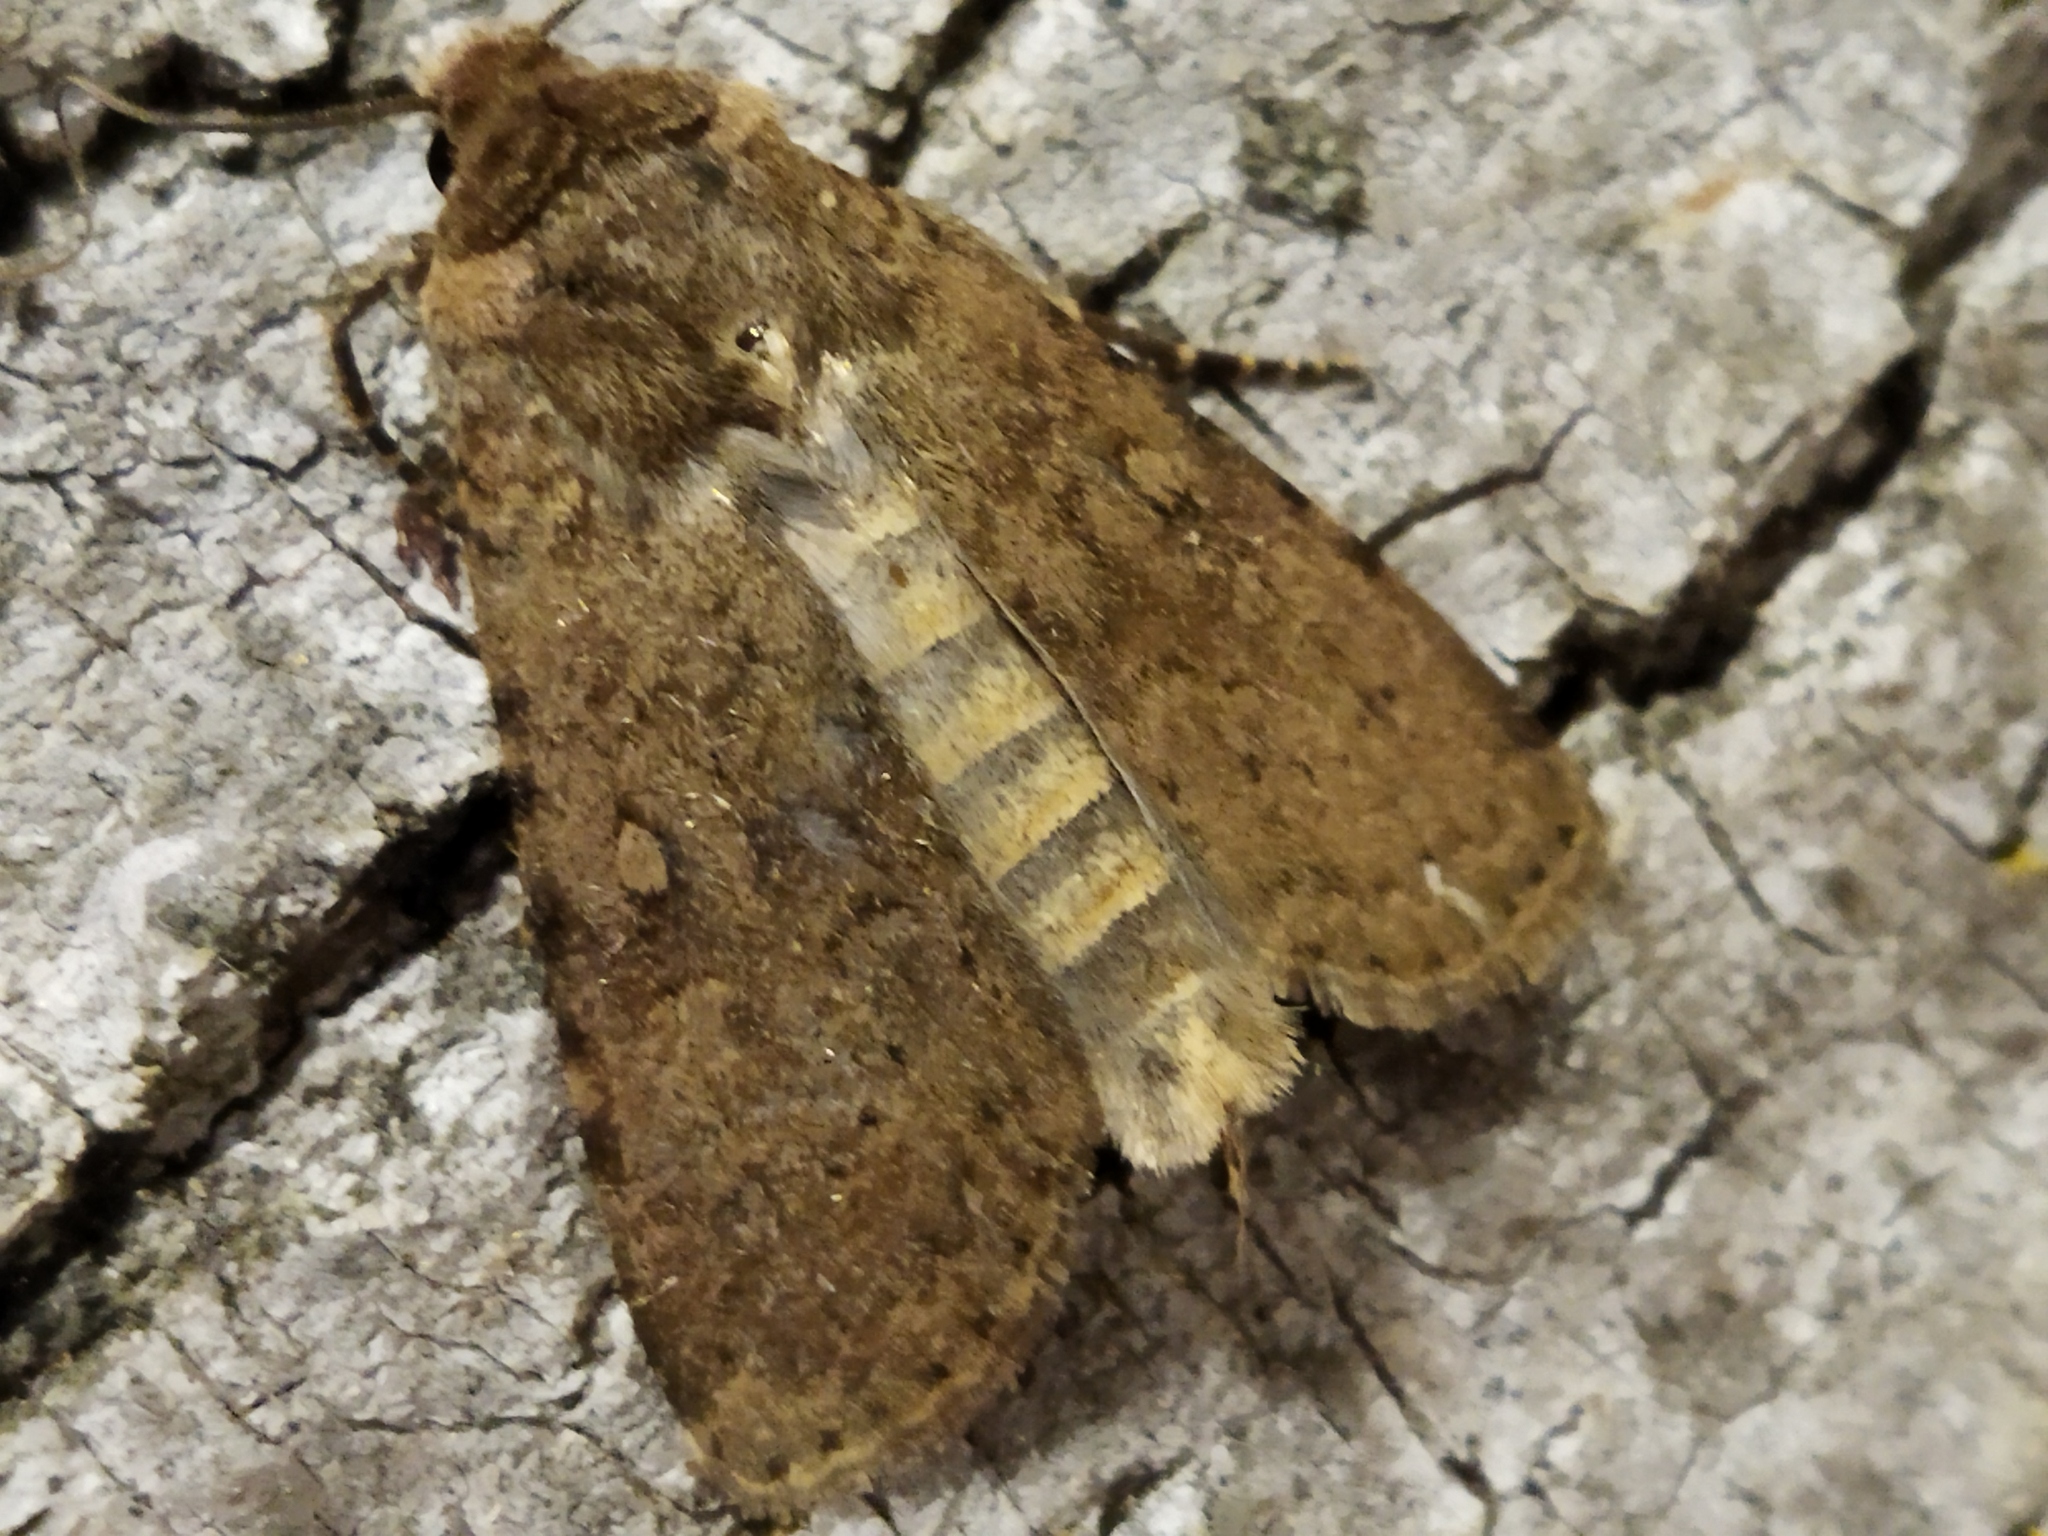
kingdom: Animalia
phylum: Arthropoda
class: Insecta
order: Lepidoptera
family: Noctuidae
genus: Rhyacia
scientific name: Rhyacia simulans
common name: Dotted rustic
